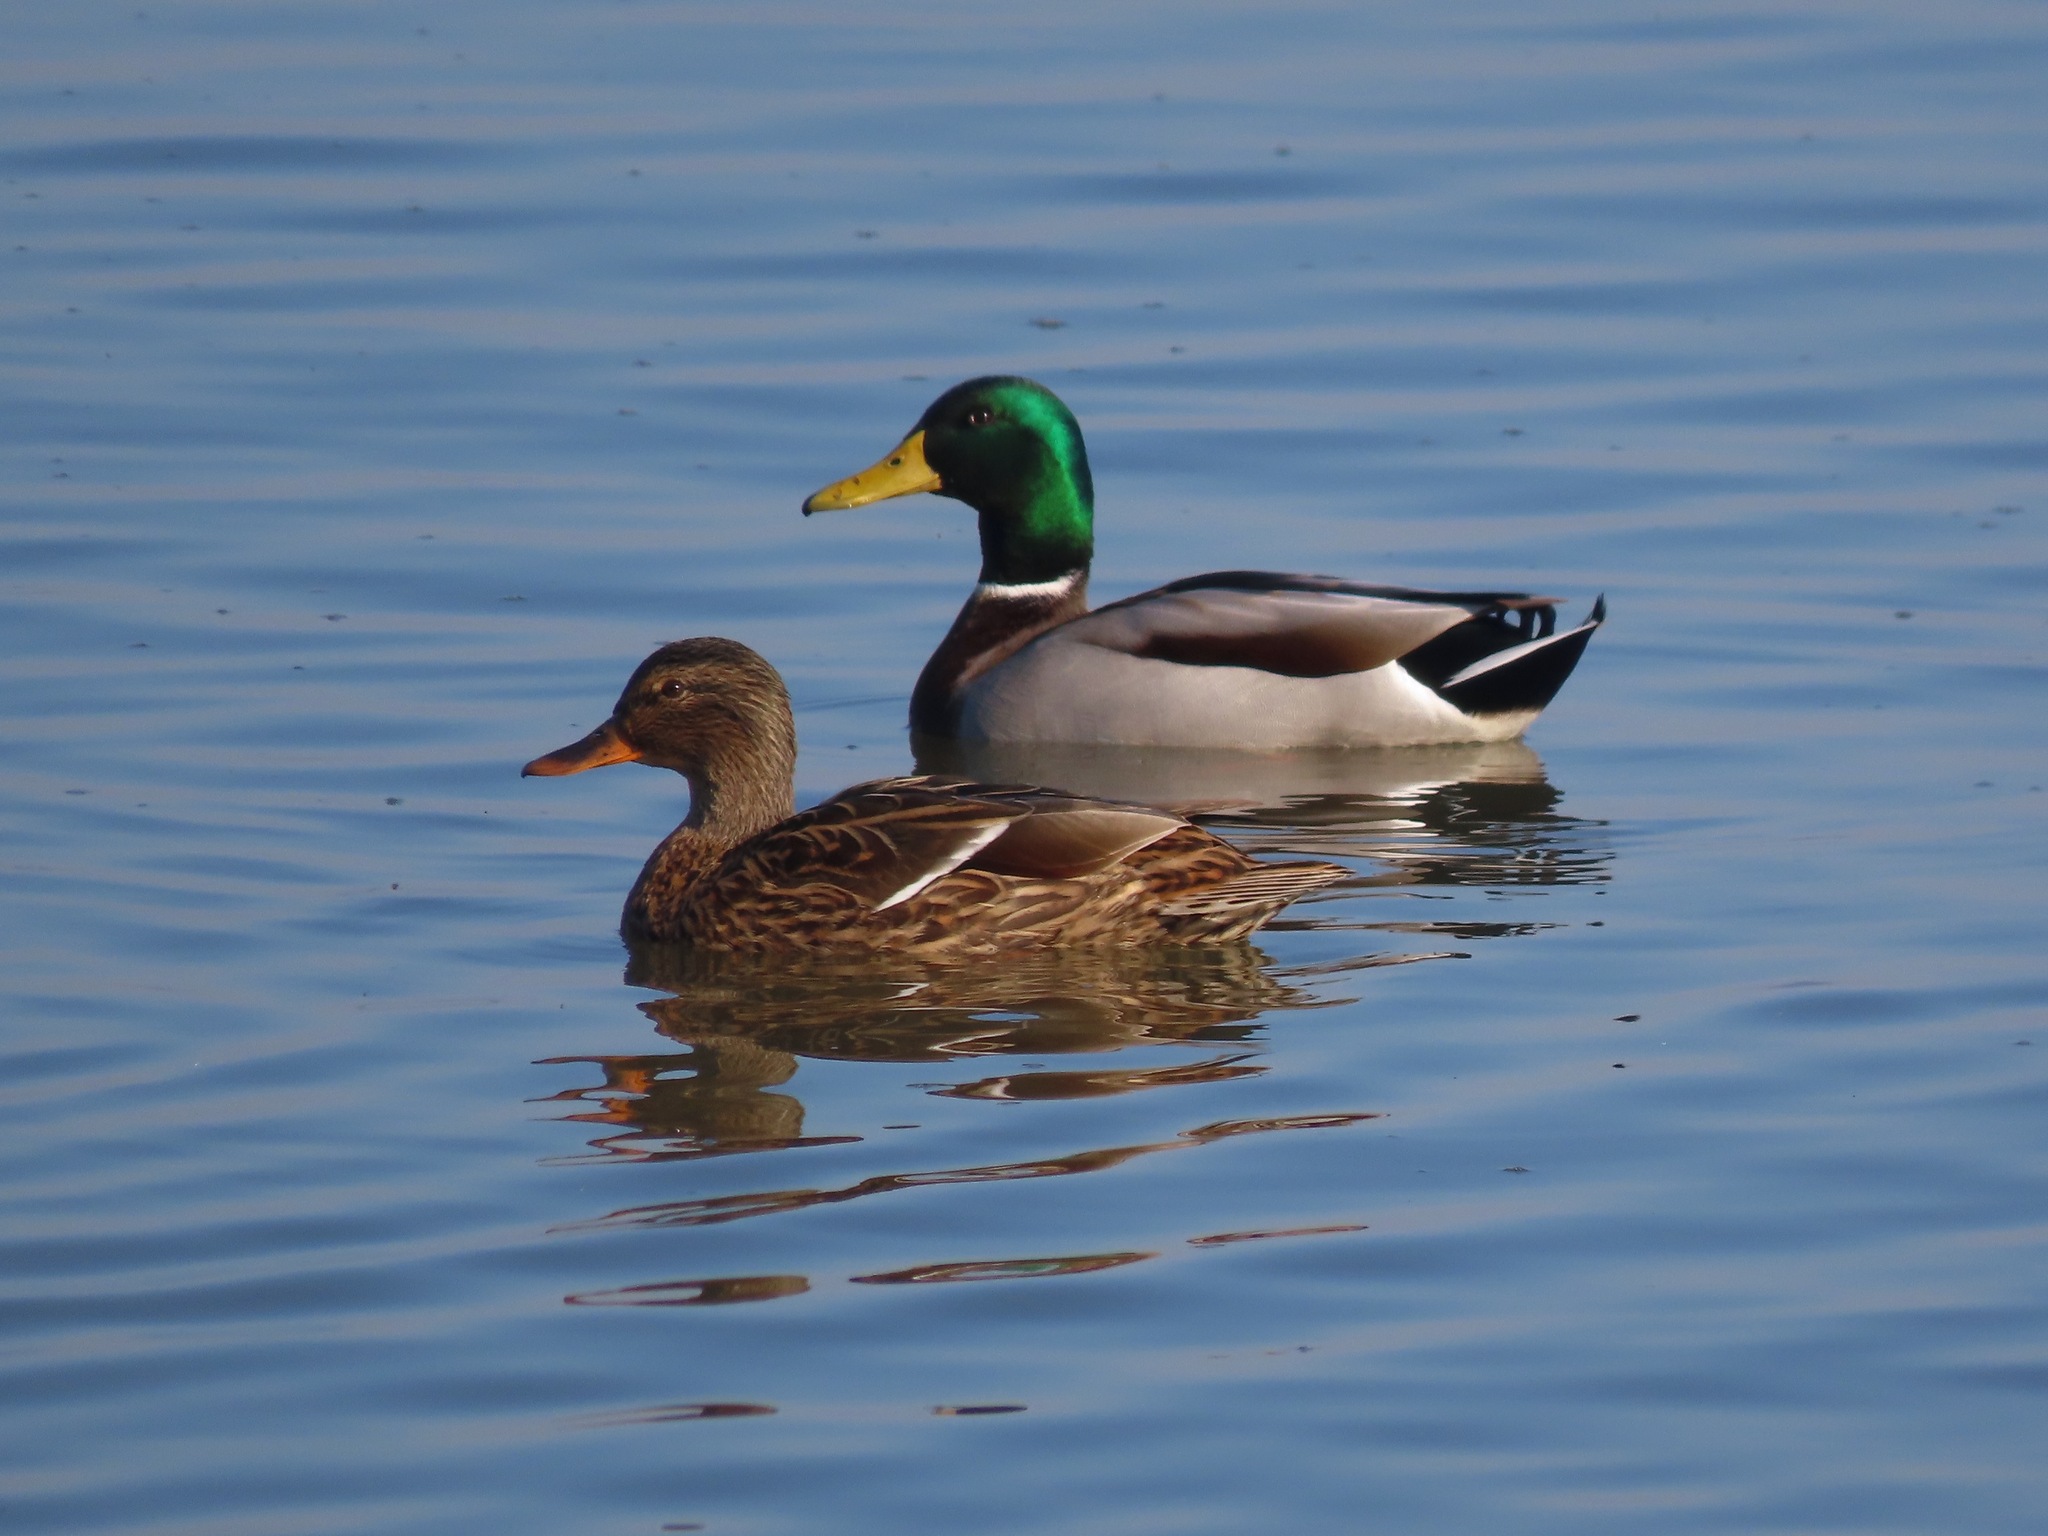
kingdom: Animalia
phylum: Chordata
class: Aves
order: Anseriformes
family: Anatidae
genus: Anas
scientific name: Anas platyrhynchos
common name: Mallard
